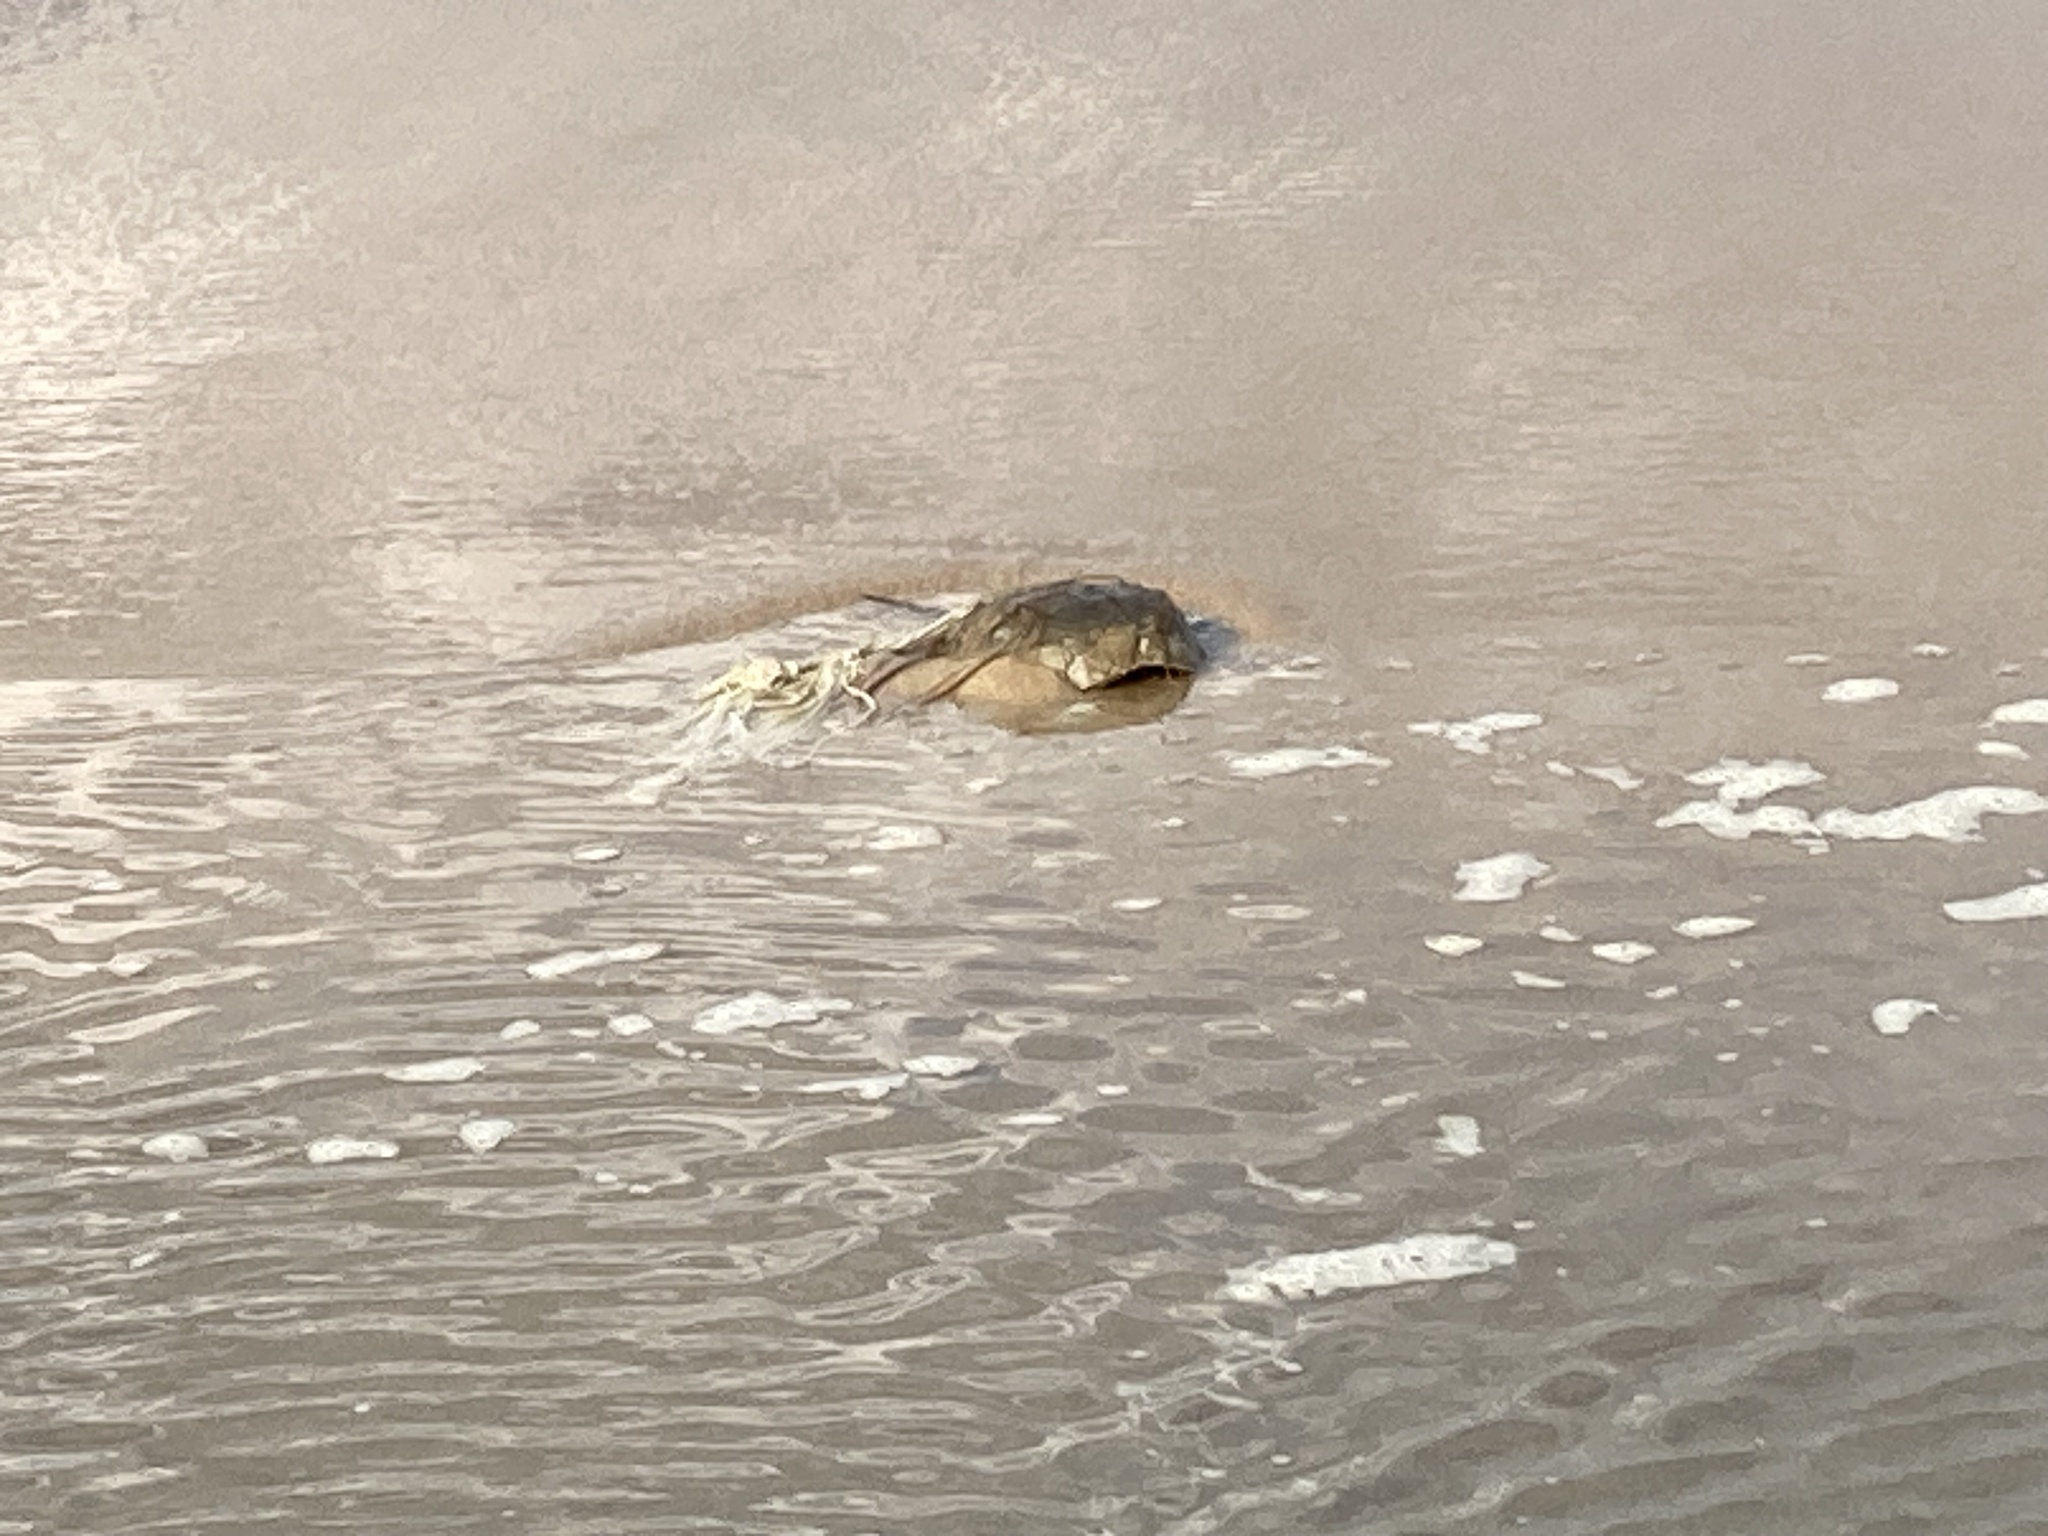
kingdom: Animalia
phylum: Arthropoda
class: Merostomata
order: Xiphosurida
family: Limulidae
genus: Limulus
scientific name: Limulus polyphemus
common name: Horseshoe crab
